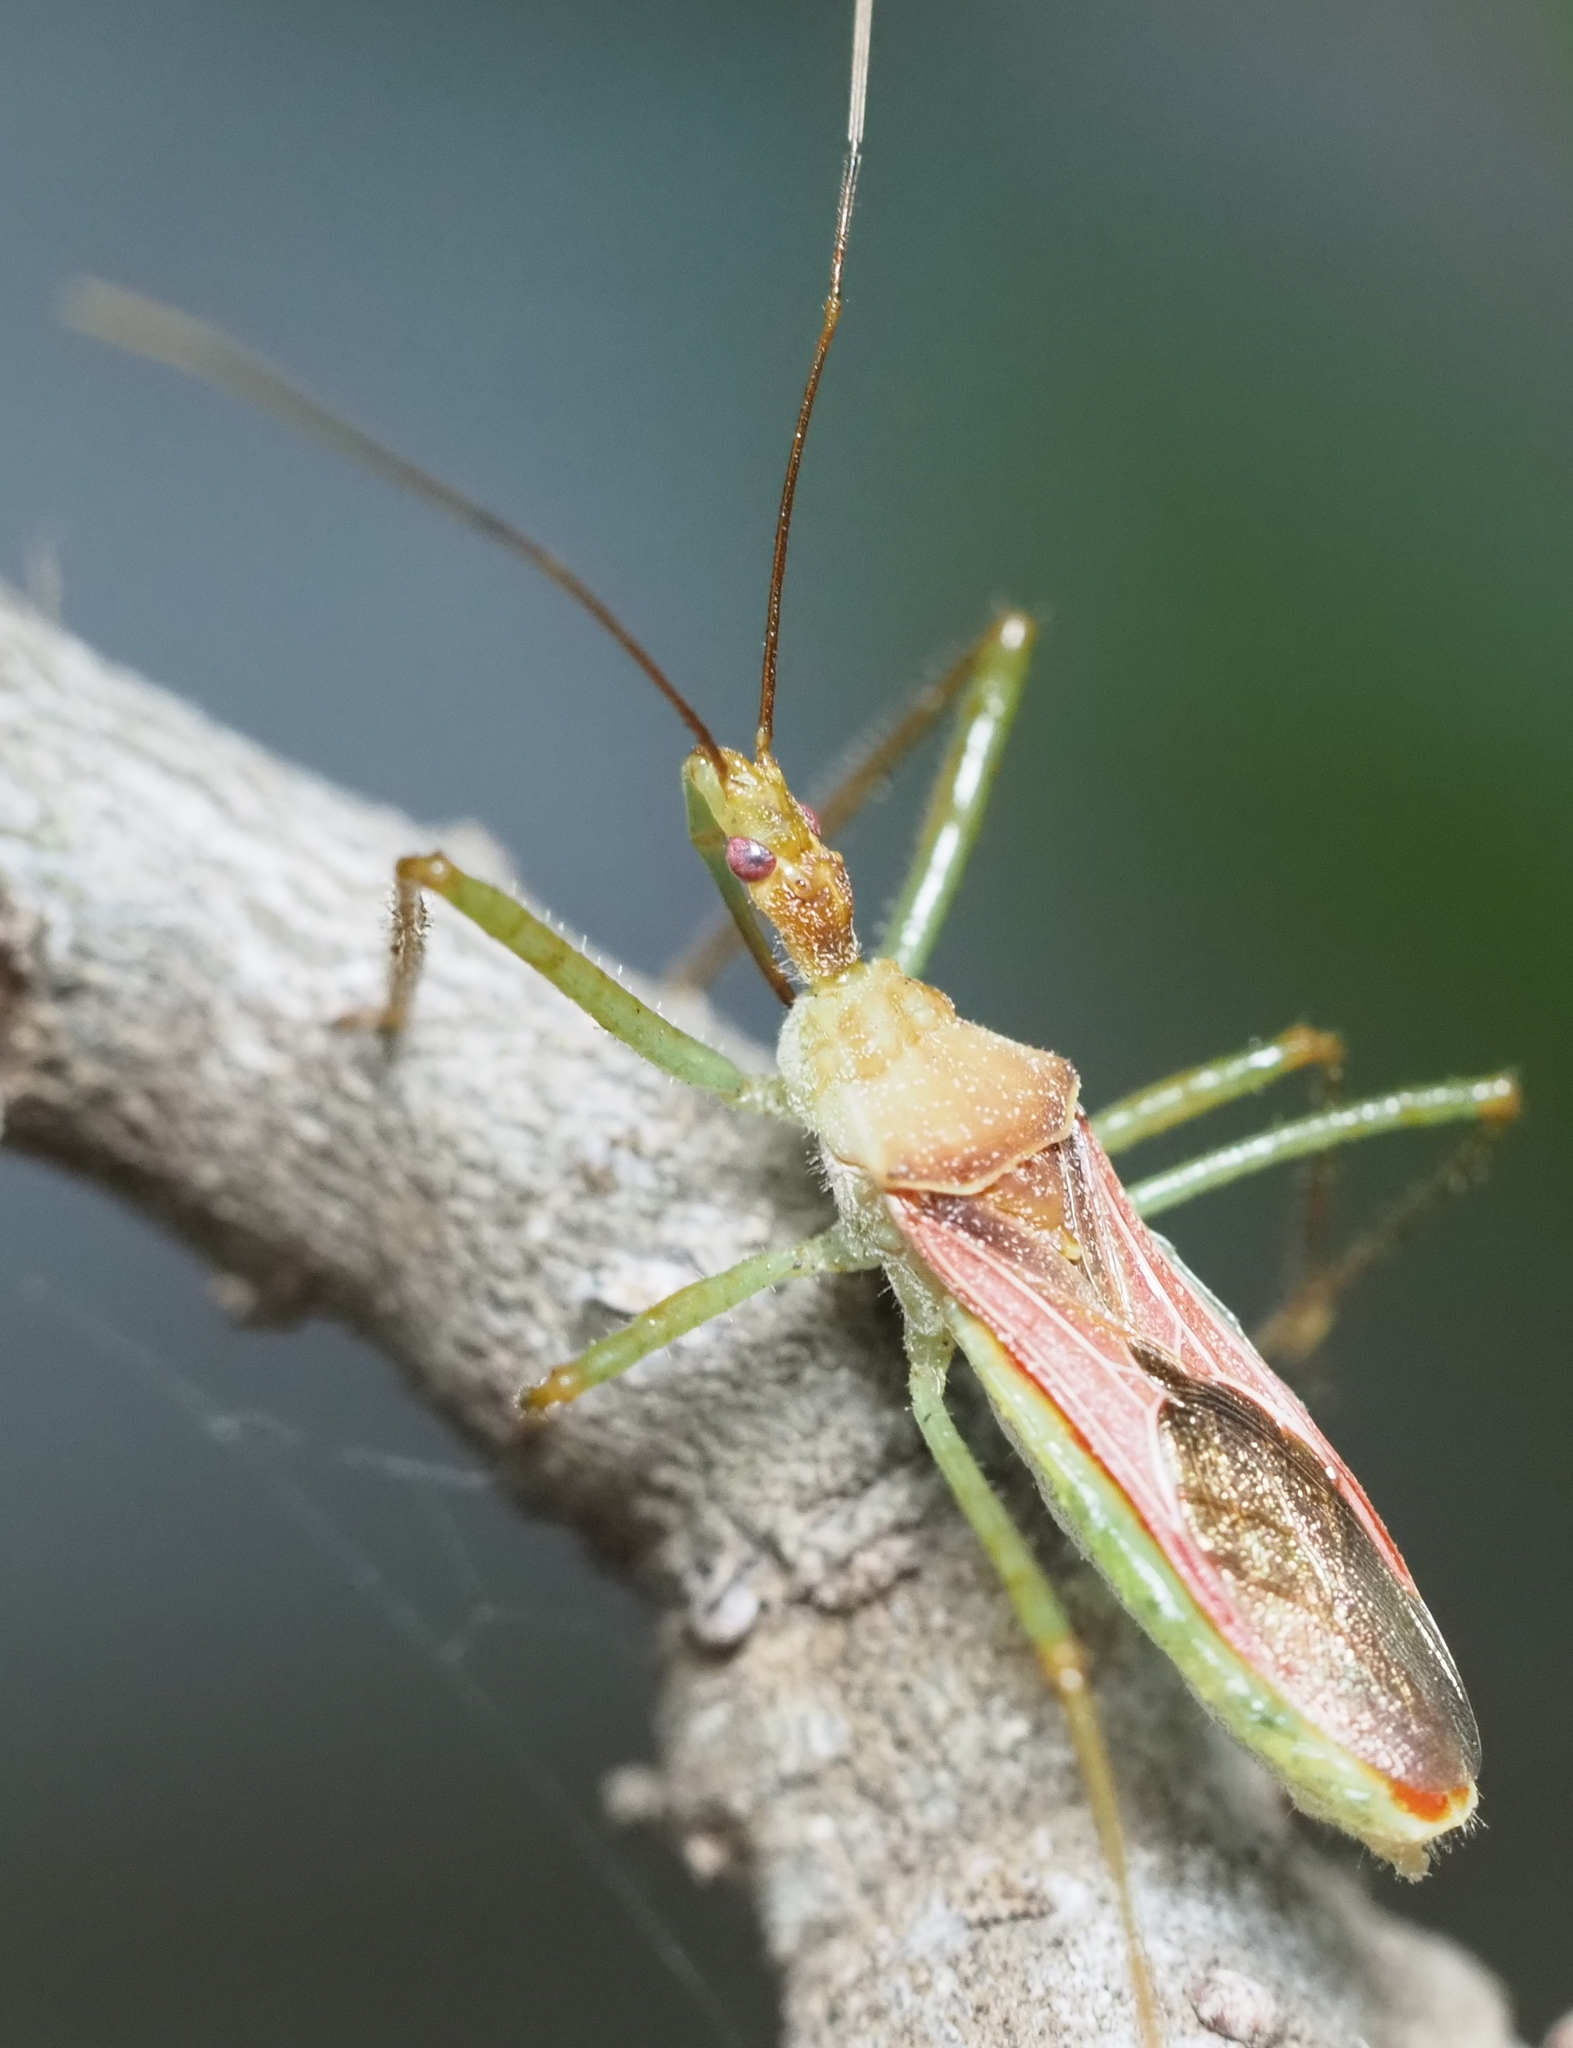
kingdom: Animalia
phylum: Arthropoda
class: Insecta
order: Hemiptera
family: Reduviidae
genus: Zelus
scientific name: Zelus renardii
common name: Assassin bug
